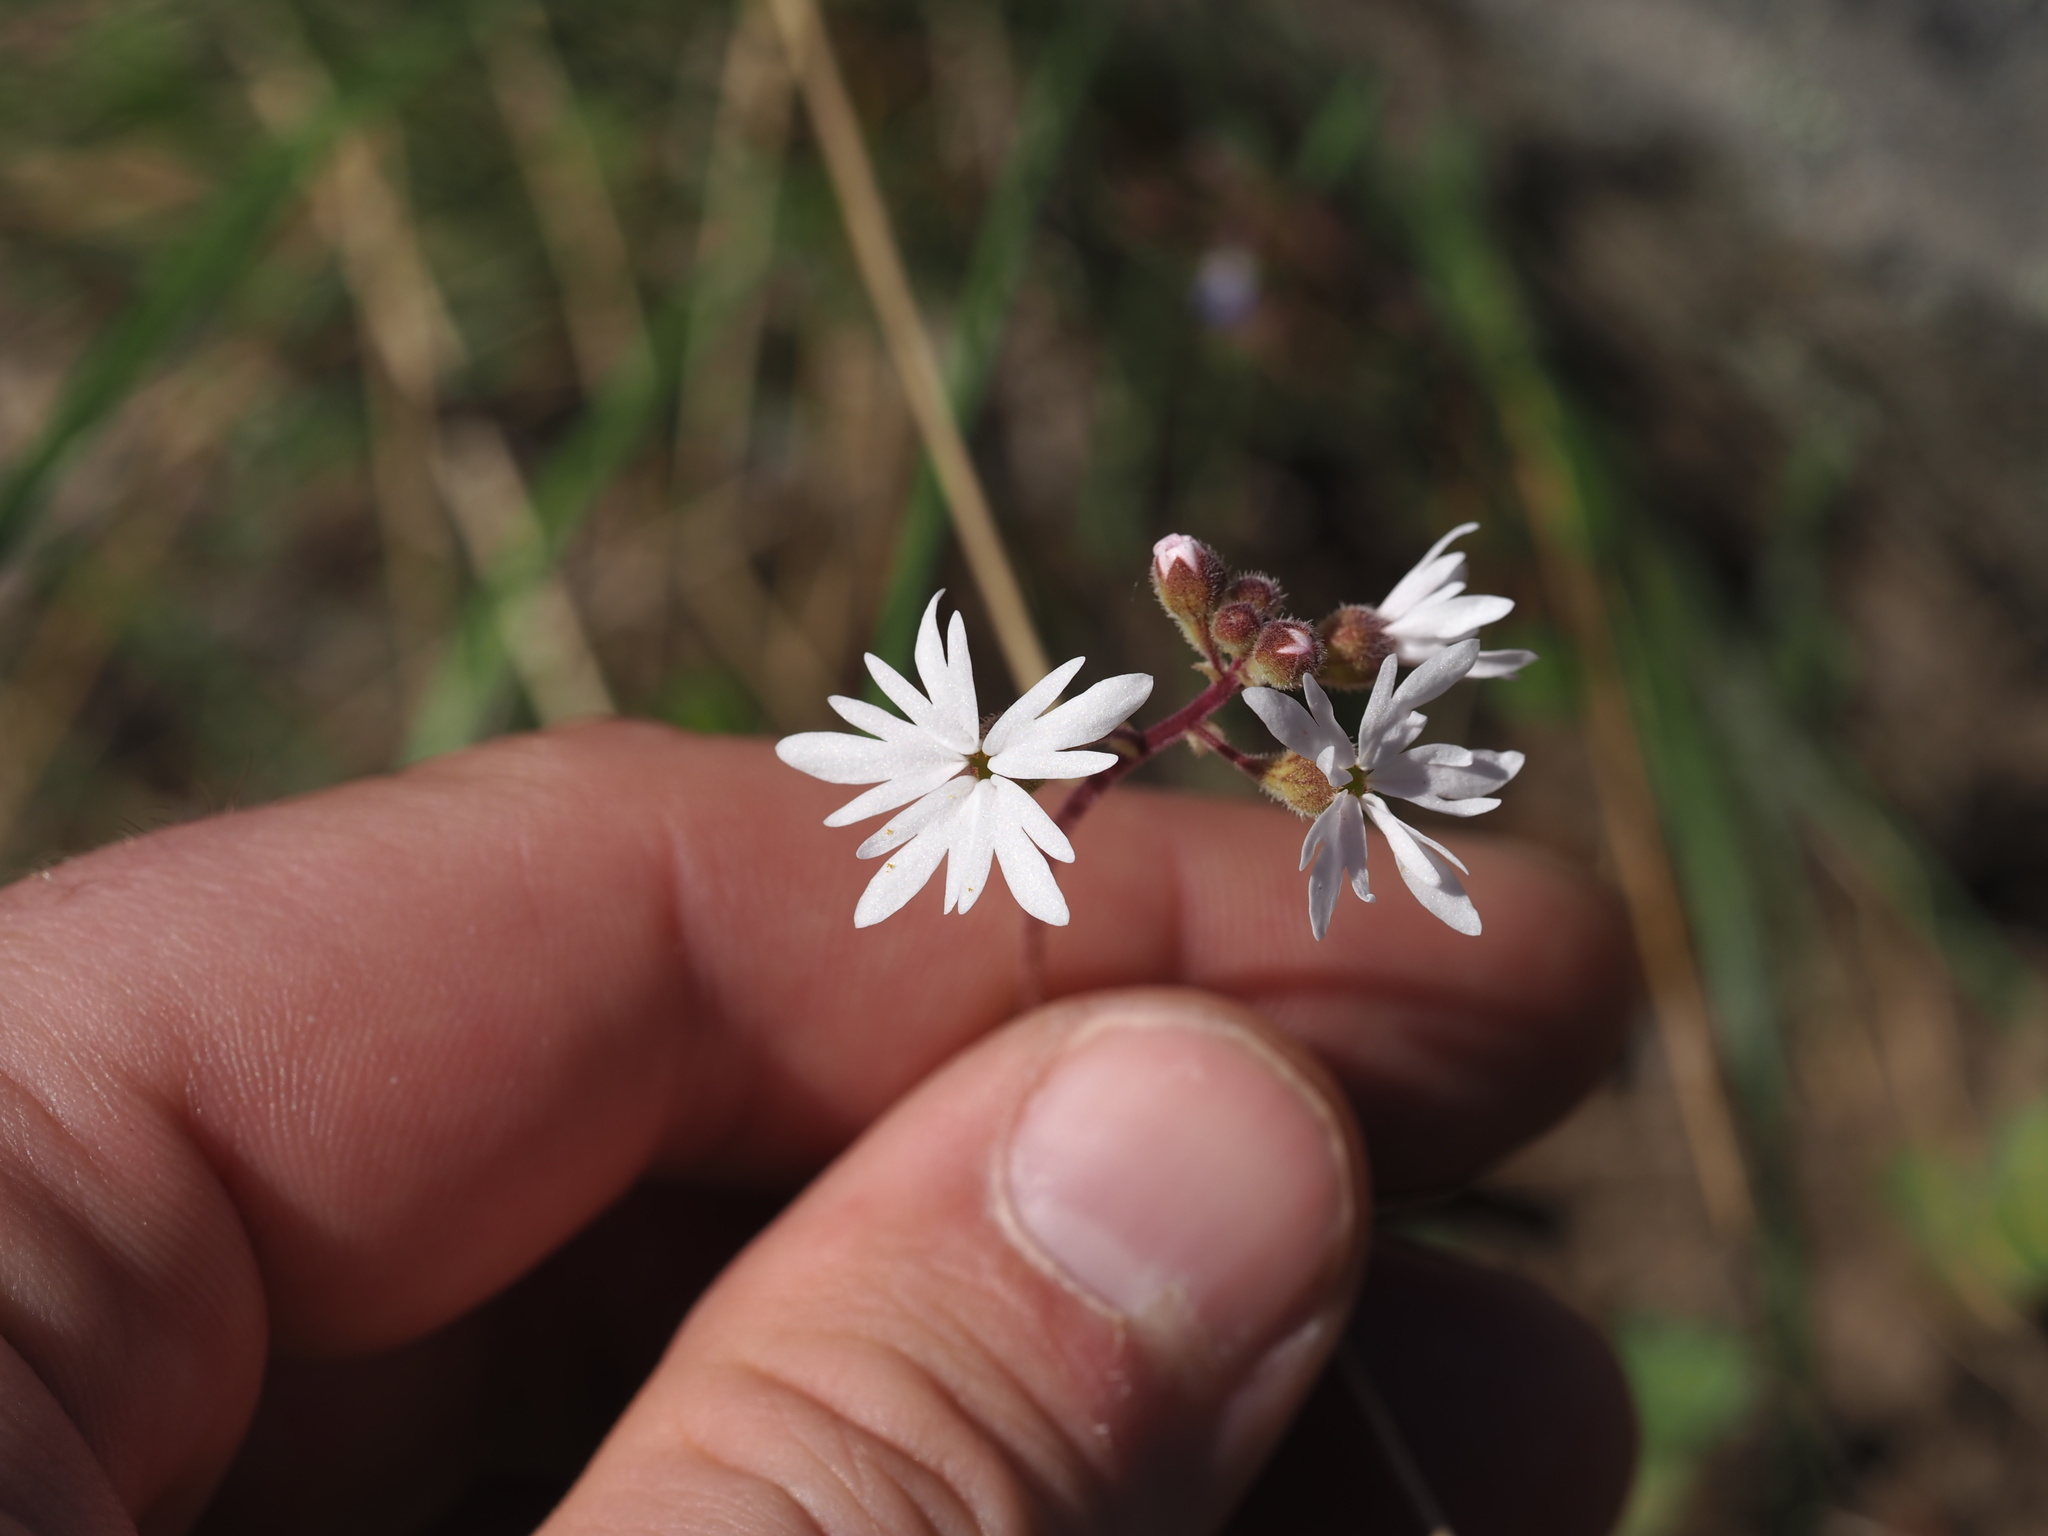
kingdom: Plantae
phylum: Tracheophyta
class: Magnoliopsida
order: Saxifragales
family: Saxifragaceae
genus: Lithophragma
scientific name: Lithophragma parviflorum
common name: Small-flowered fringe-cup
